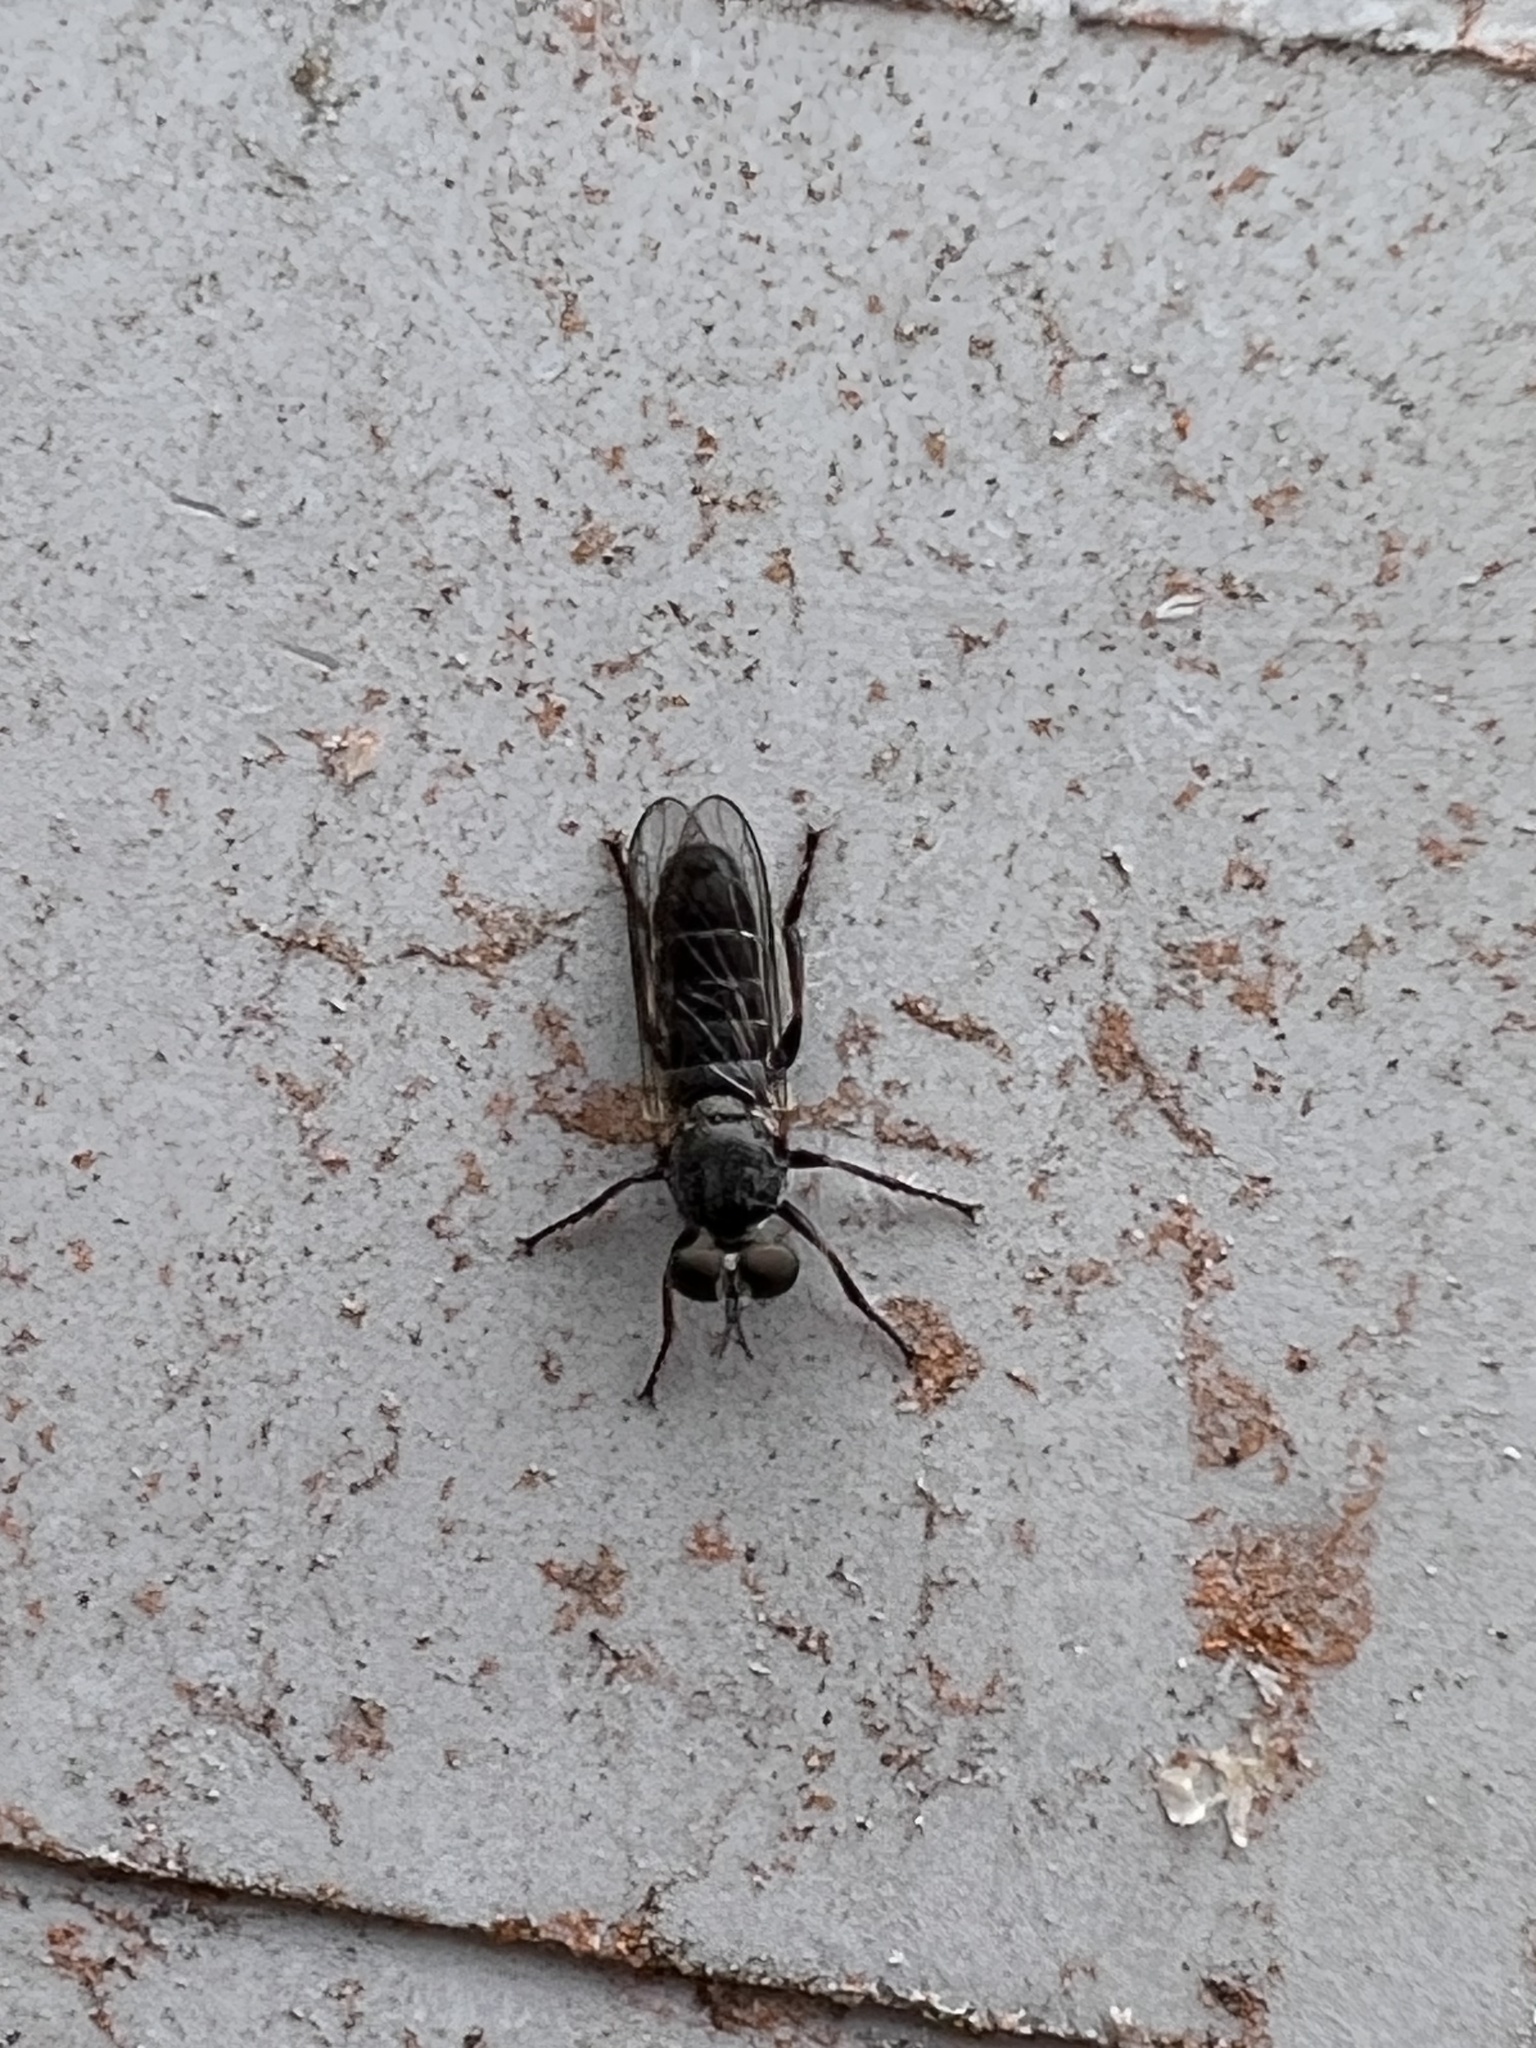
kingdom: Animalia
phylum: Arthropoda
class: Insecta
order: Diptera
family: Asilidae
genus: Atomosia
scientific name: Atomosia puella
